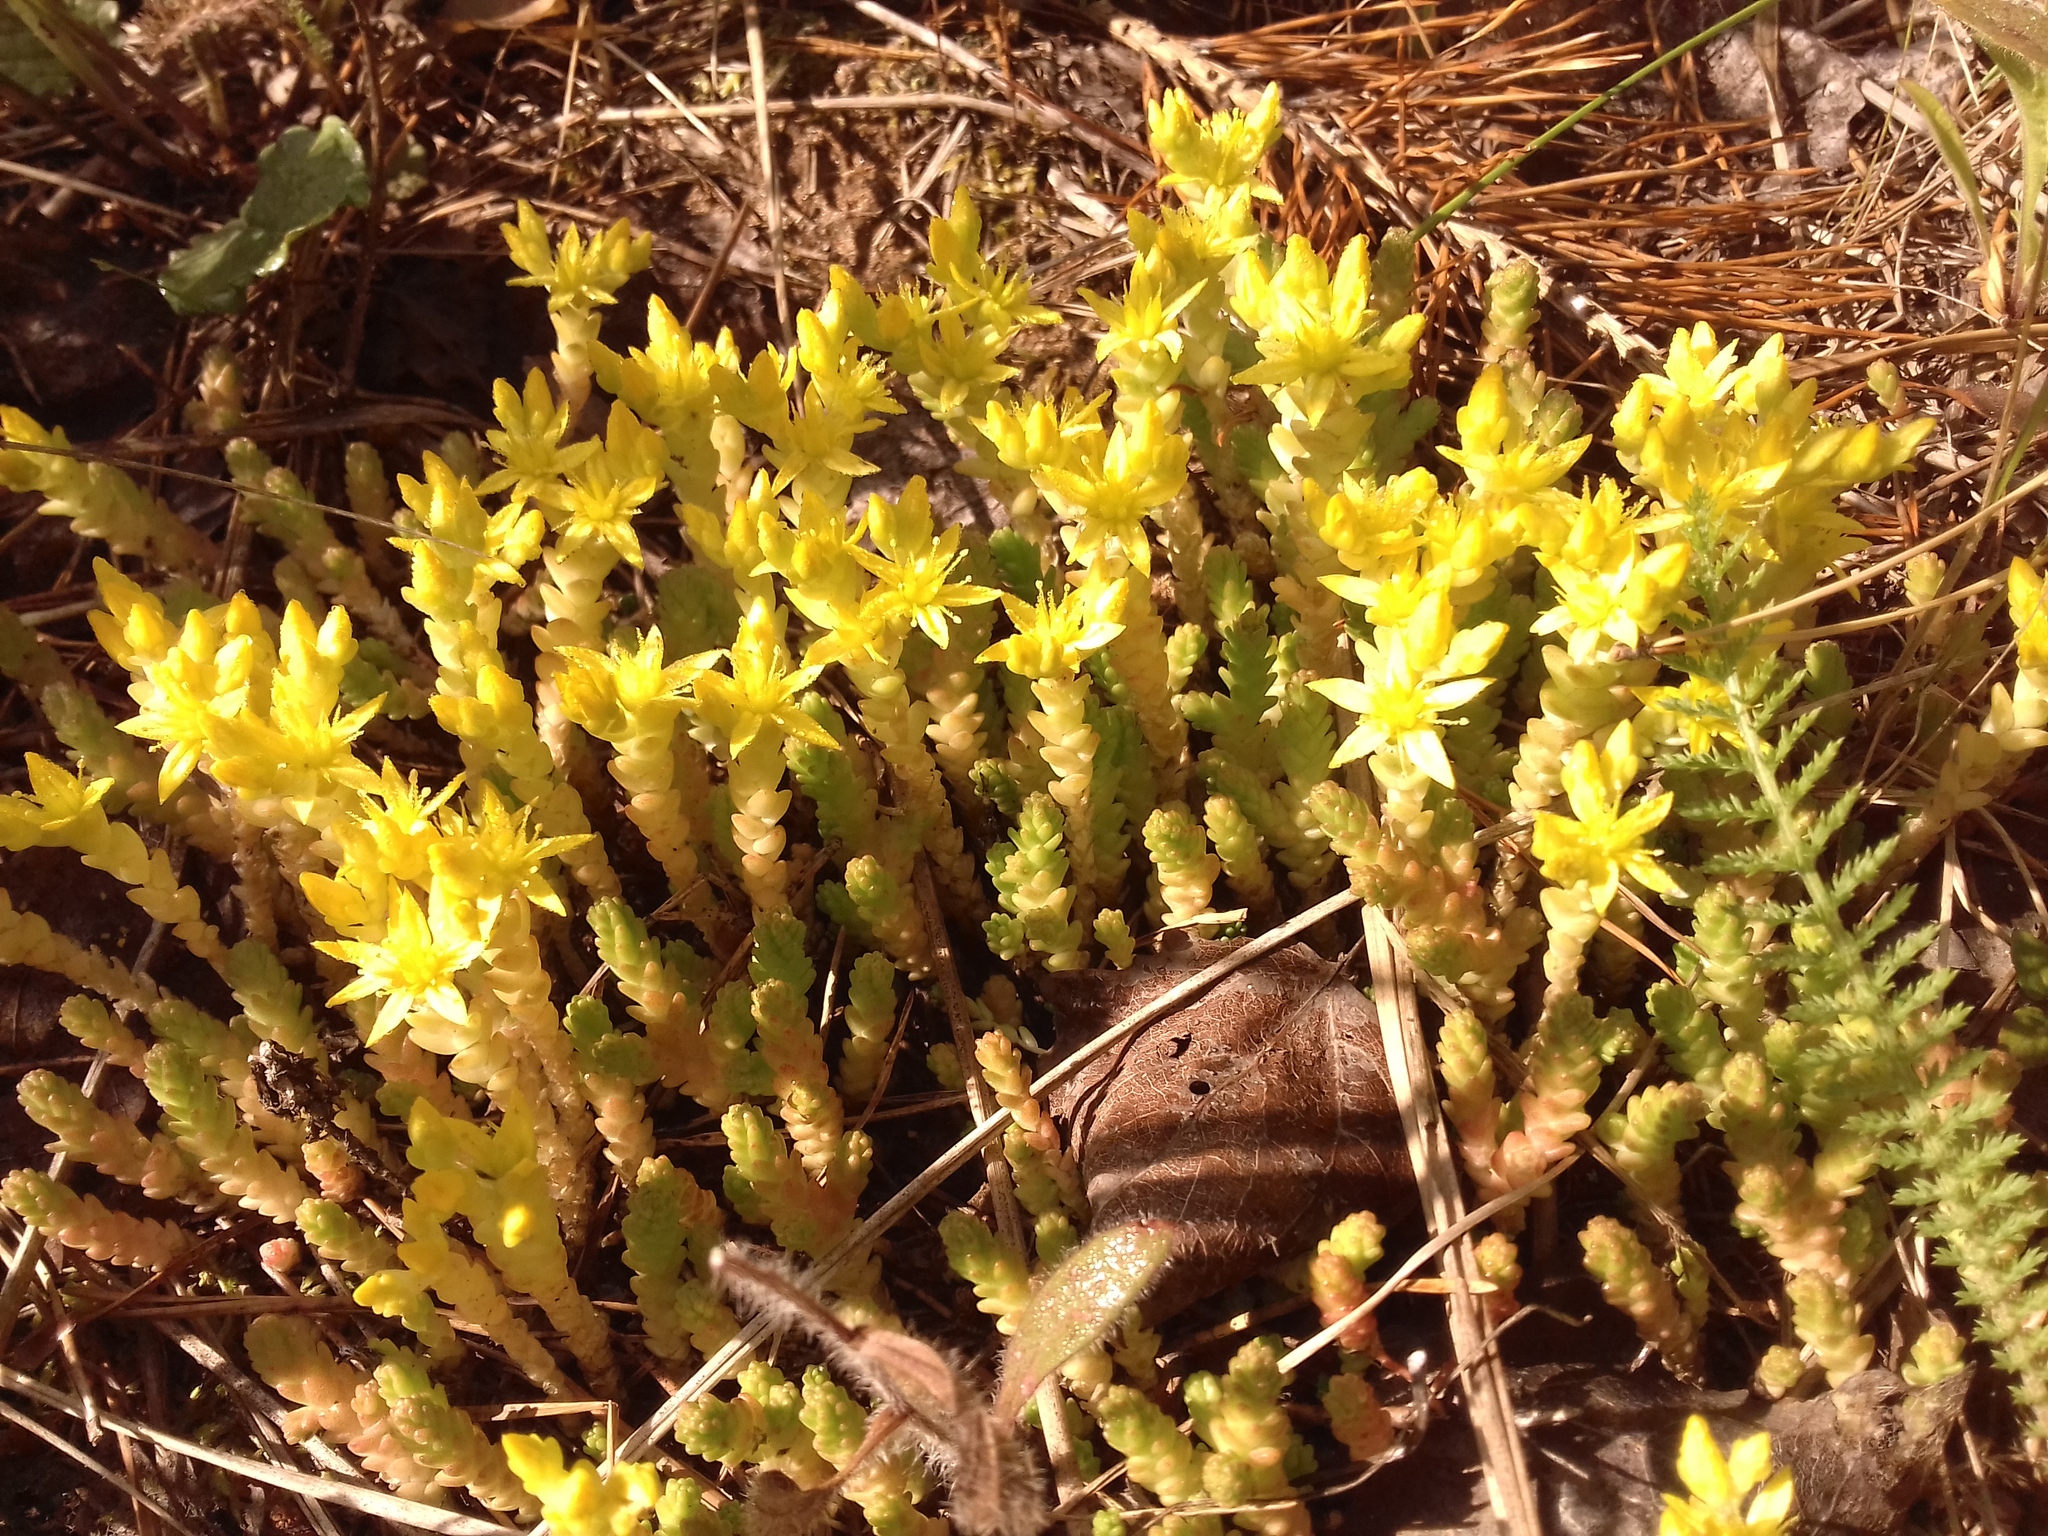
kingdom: Plantae
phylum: Tracheophyta
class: Magnoliopsida
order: Saxifragales
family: Crassulaceae
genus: Sedum
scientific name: Sedum acre
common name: Biting stonecrop
